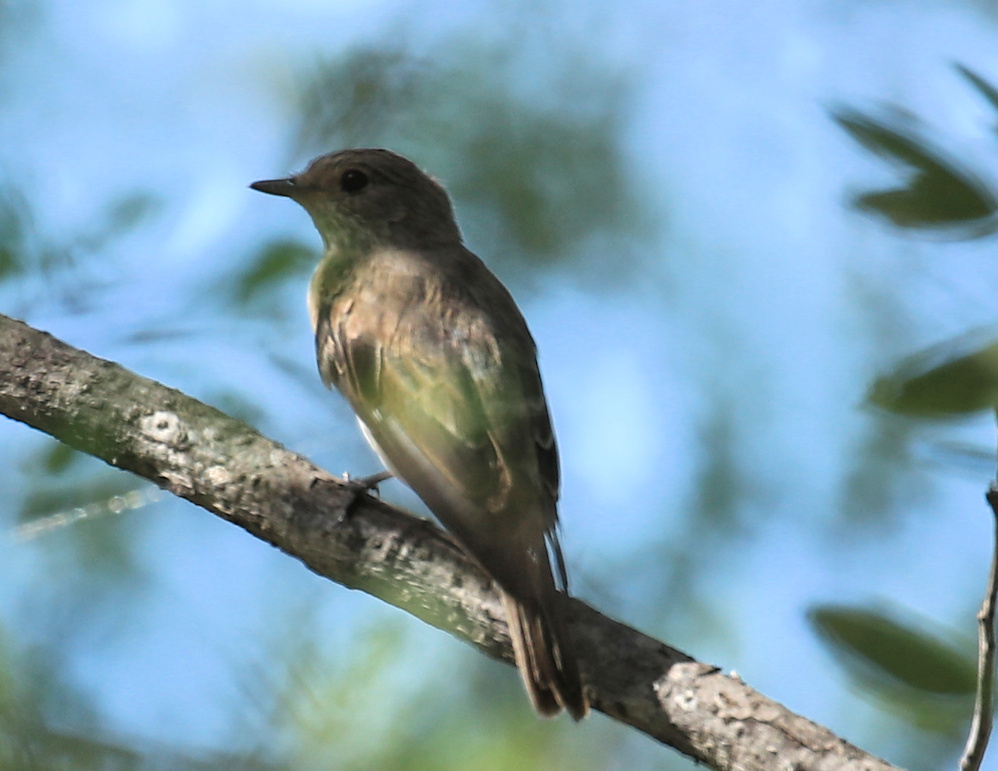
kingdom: Animalia
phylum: Chordata
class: Aves
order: Passeriformes
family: Muscicapidae
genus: Muscicapa
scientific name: Muscicapa striata
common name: Spotted flycatcher
